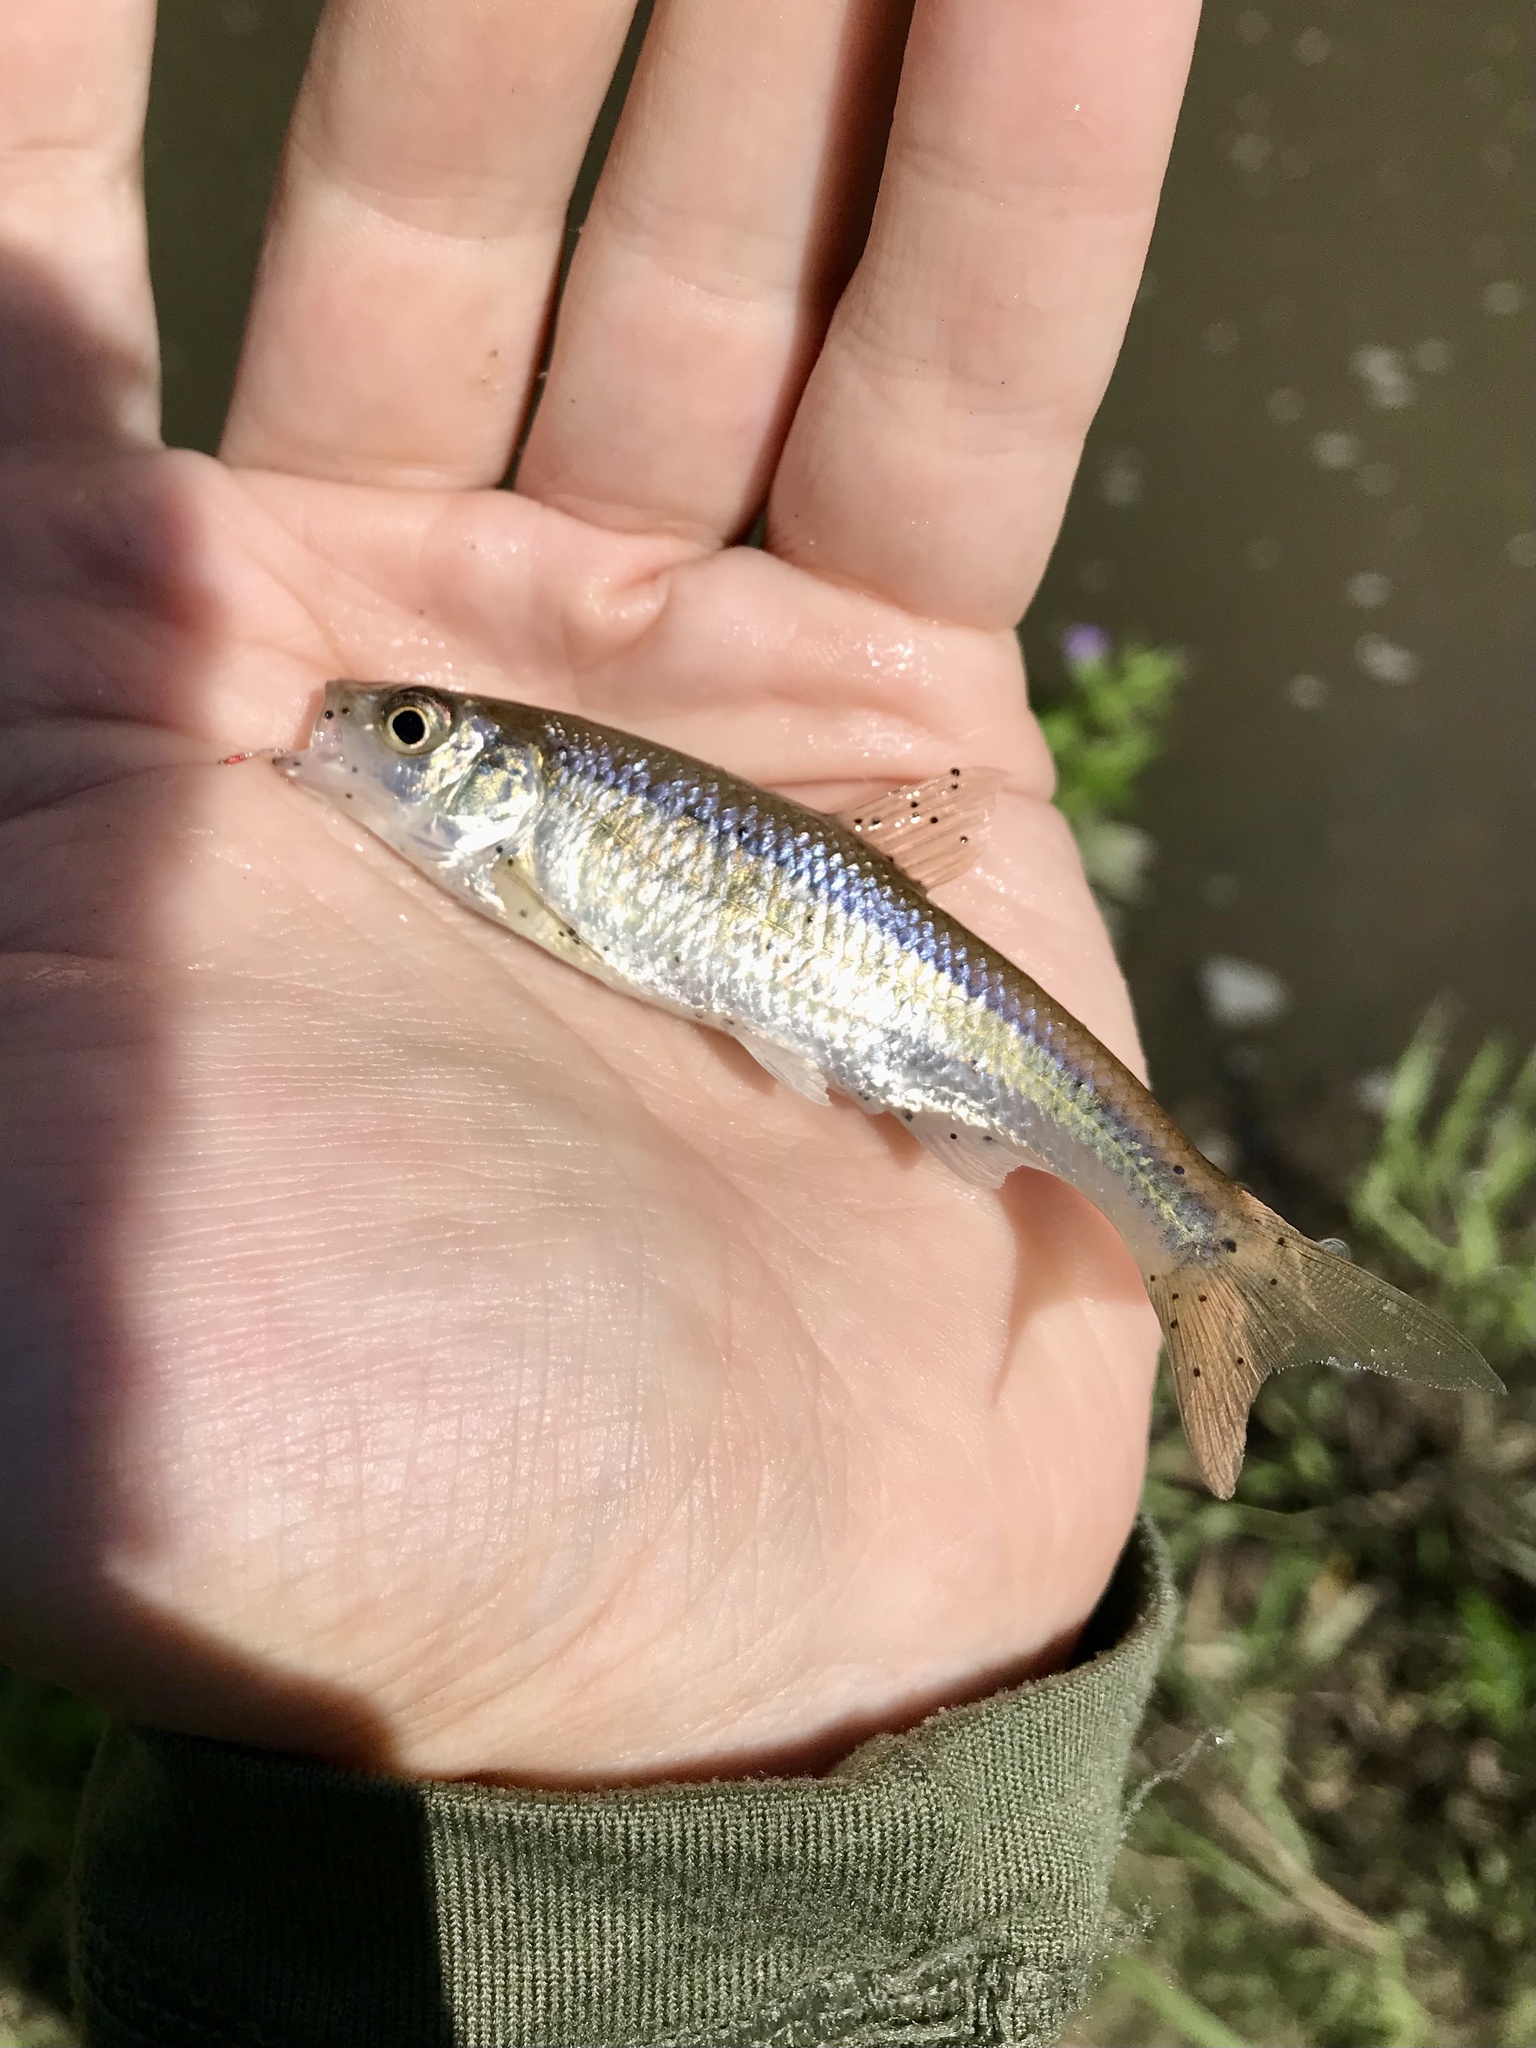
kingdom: Animalia
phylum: Chordata
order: Cypriniformes
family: Cyprinidae
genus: Luxilus
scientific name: Luxilus cornutus
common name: Common shiner
